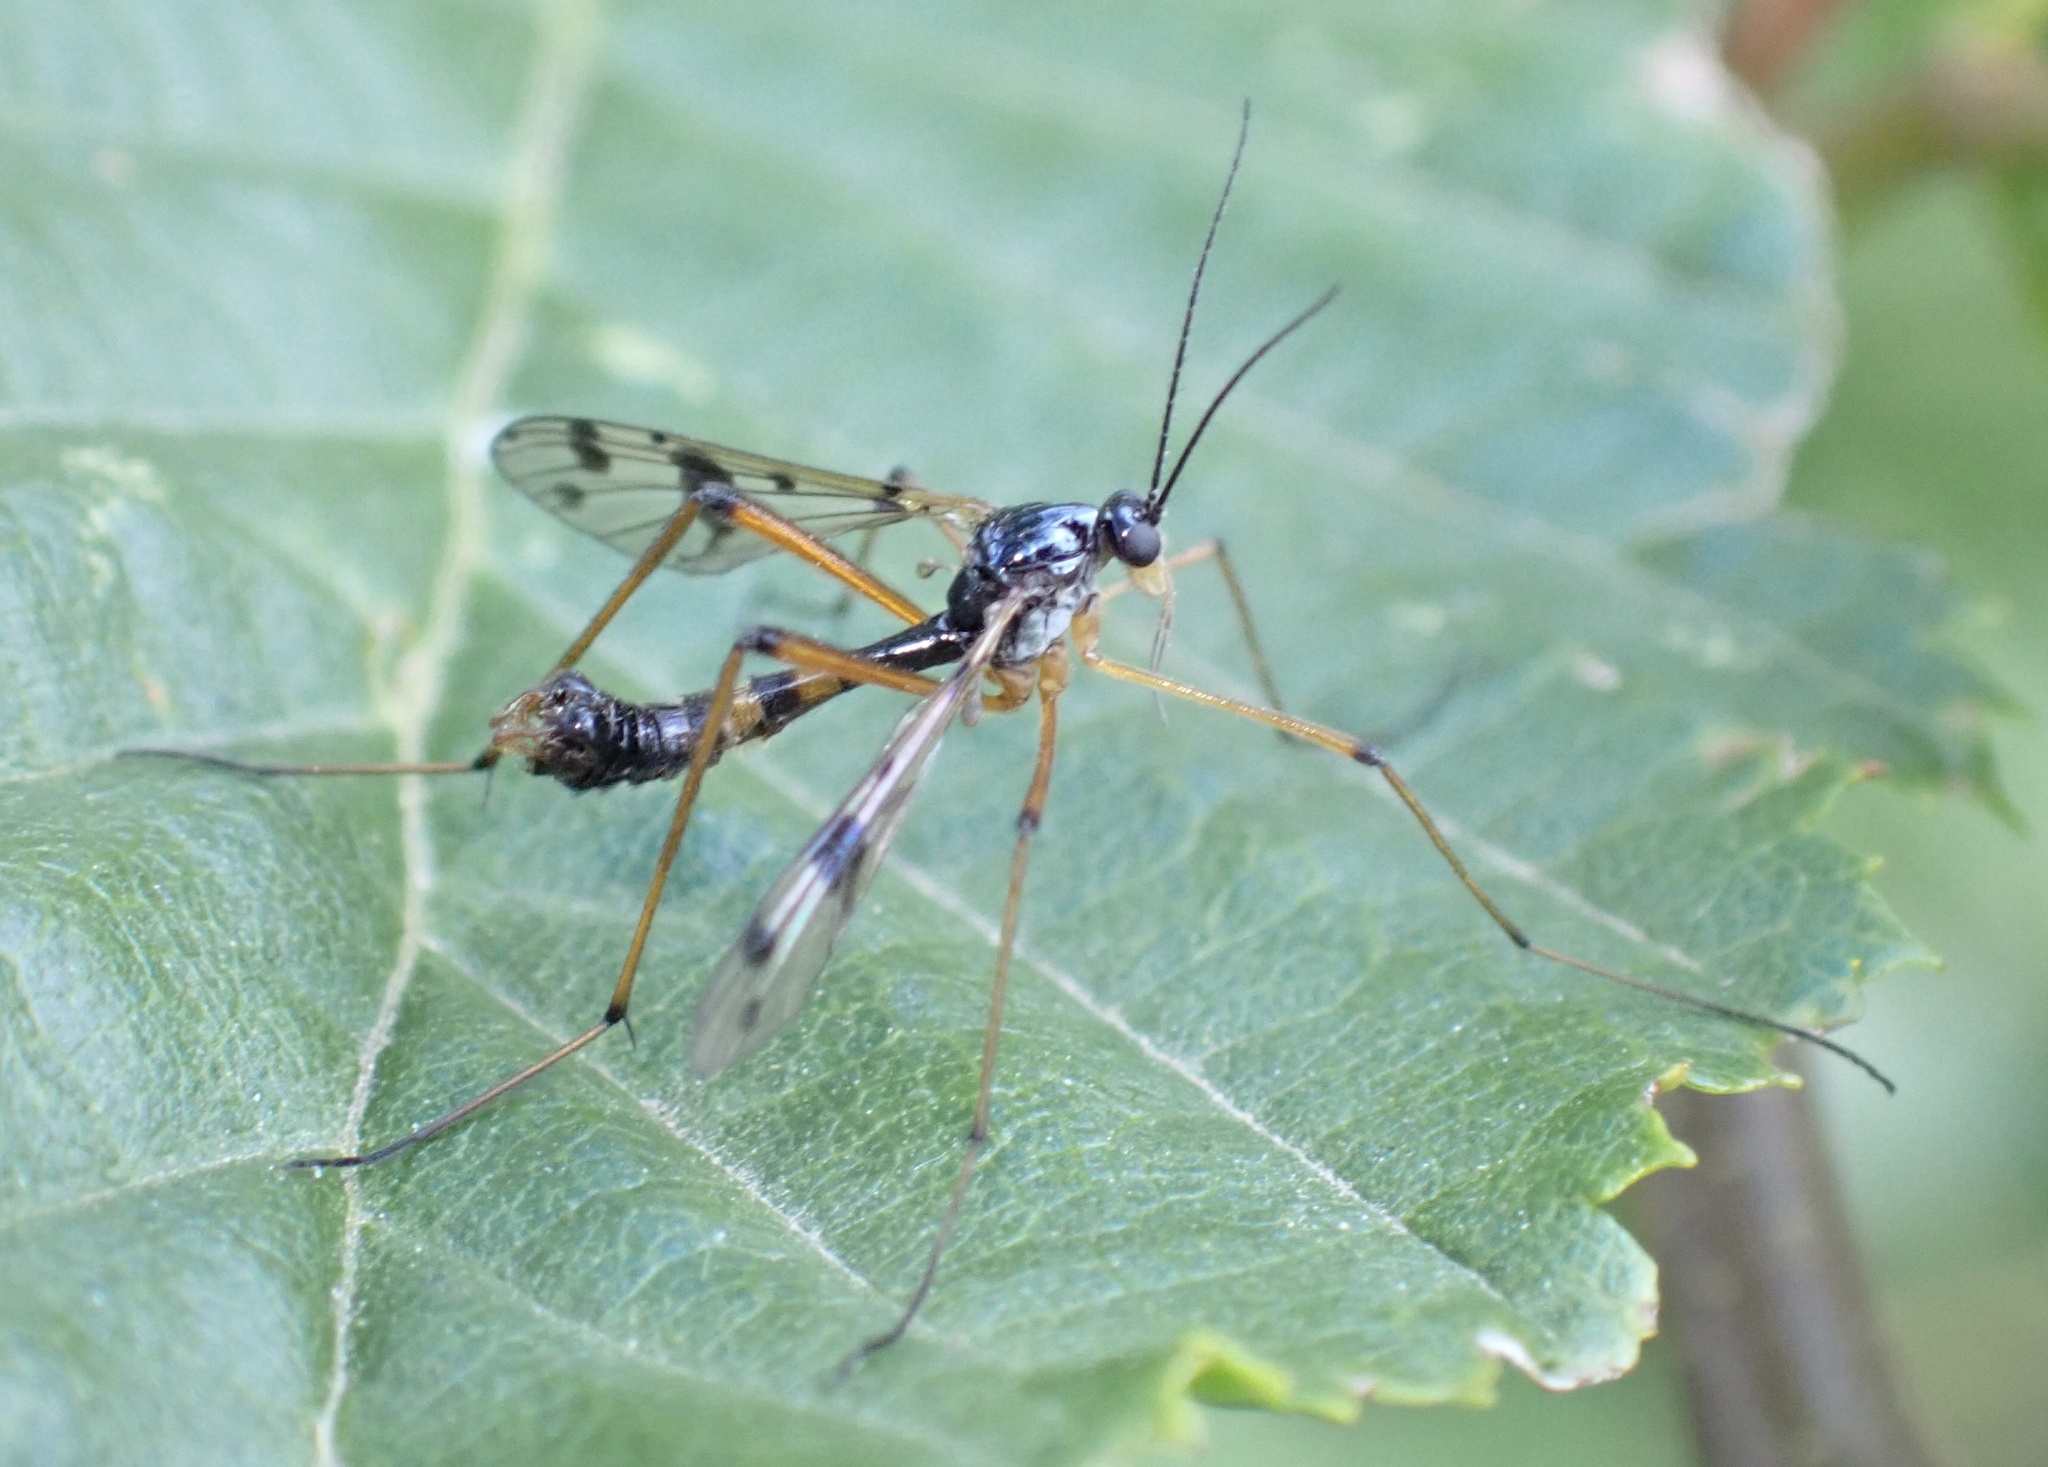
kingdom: Animalia
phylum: Arthropoda
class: Insecta
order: Diptera
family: Ptychopteridae
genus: Ptychoptera
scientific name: Ptychoptera contaminata
